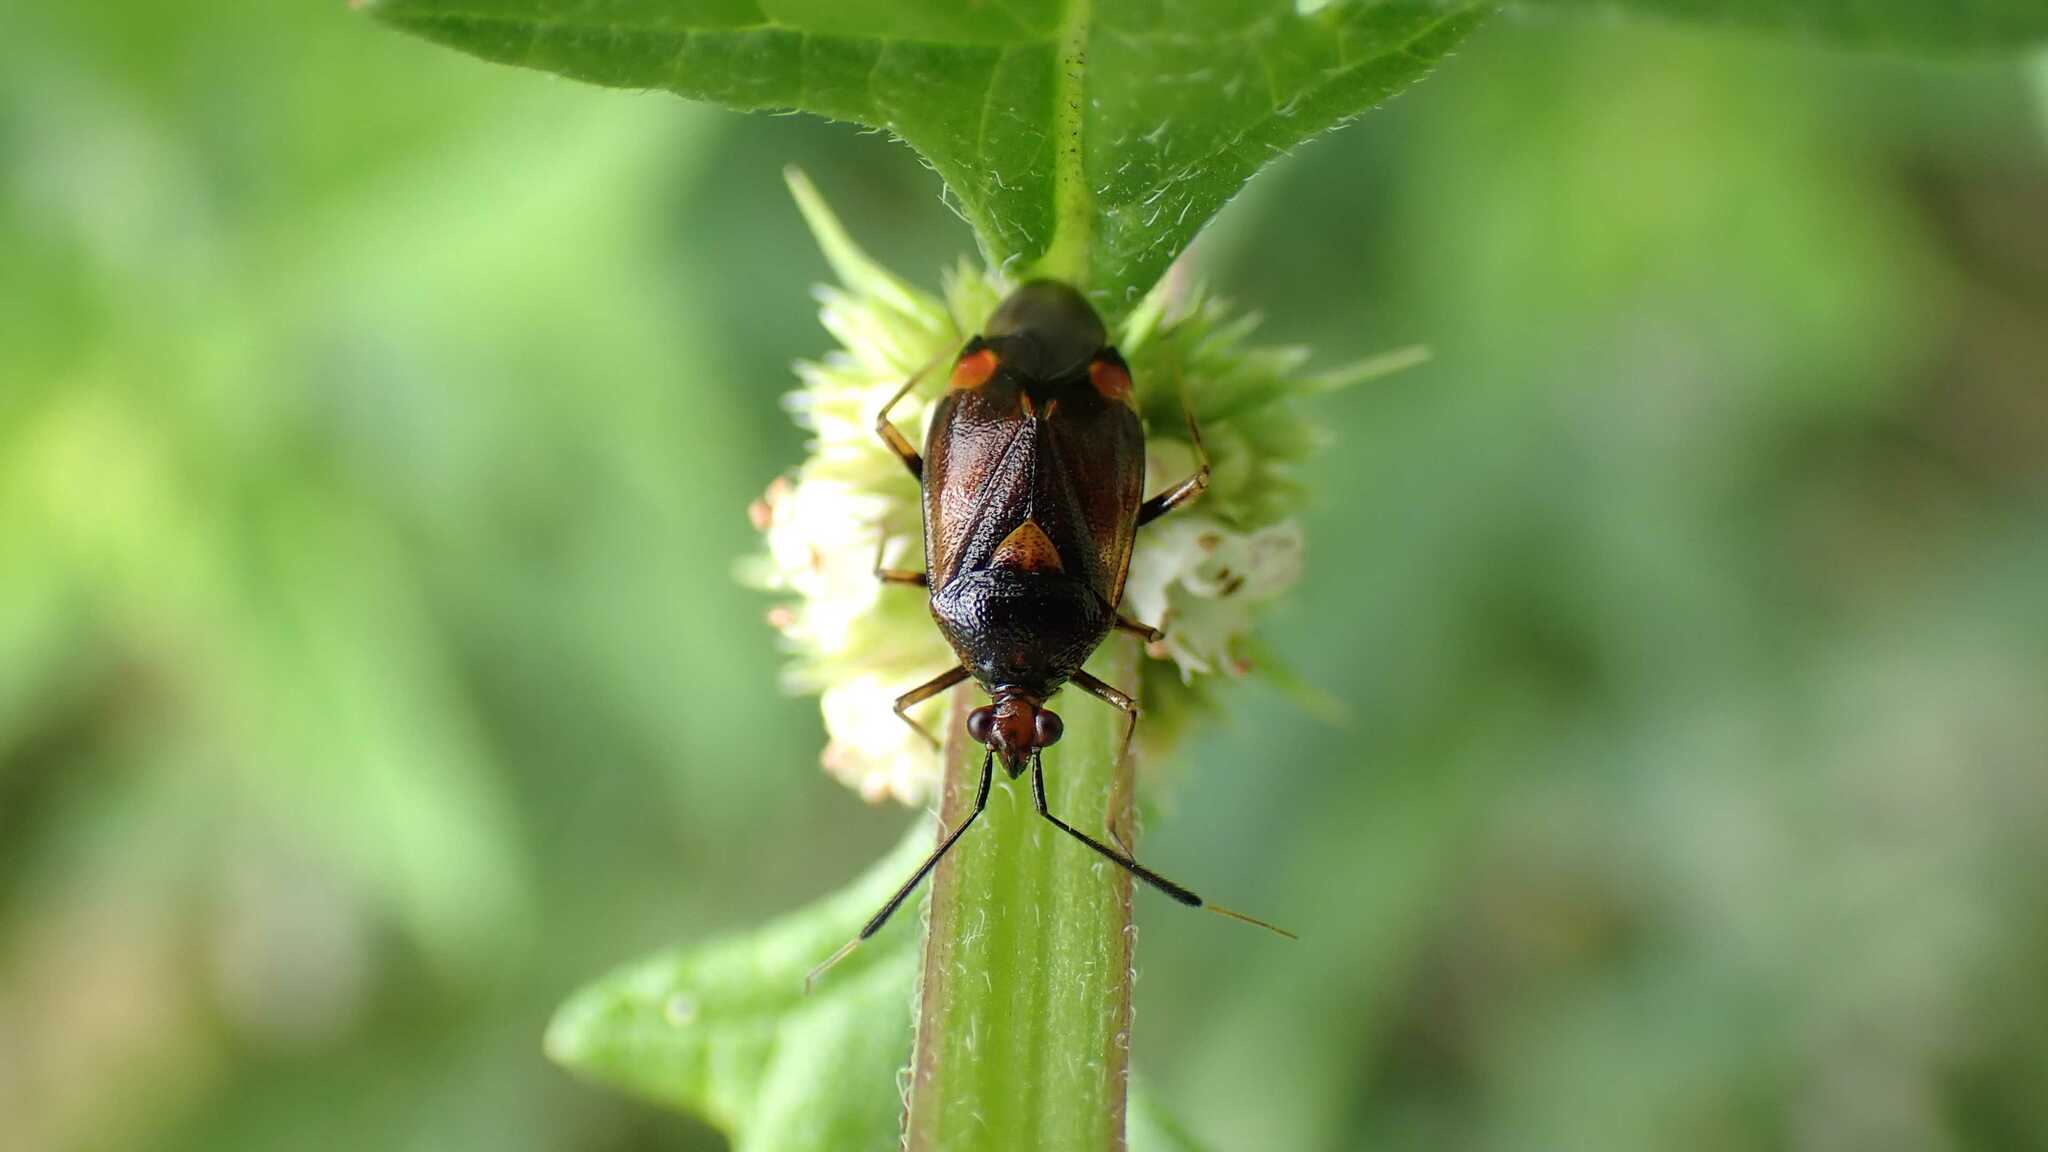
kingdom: Animalia
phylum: Arthropoda
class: Insecta
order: Hemiptera
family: Miridae
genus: Deraeocoris
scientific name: Deraeocoris ruber
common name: Plant bug
